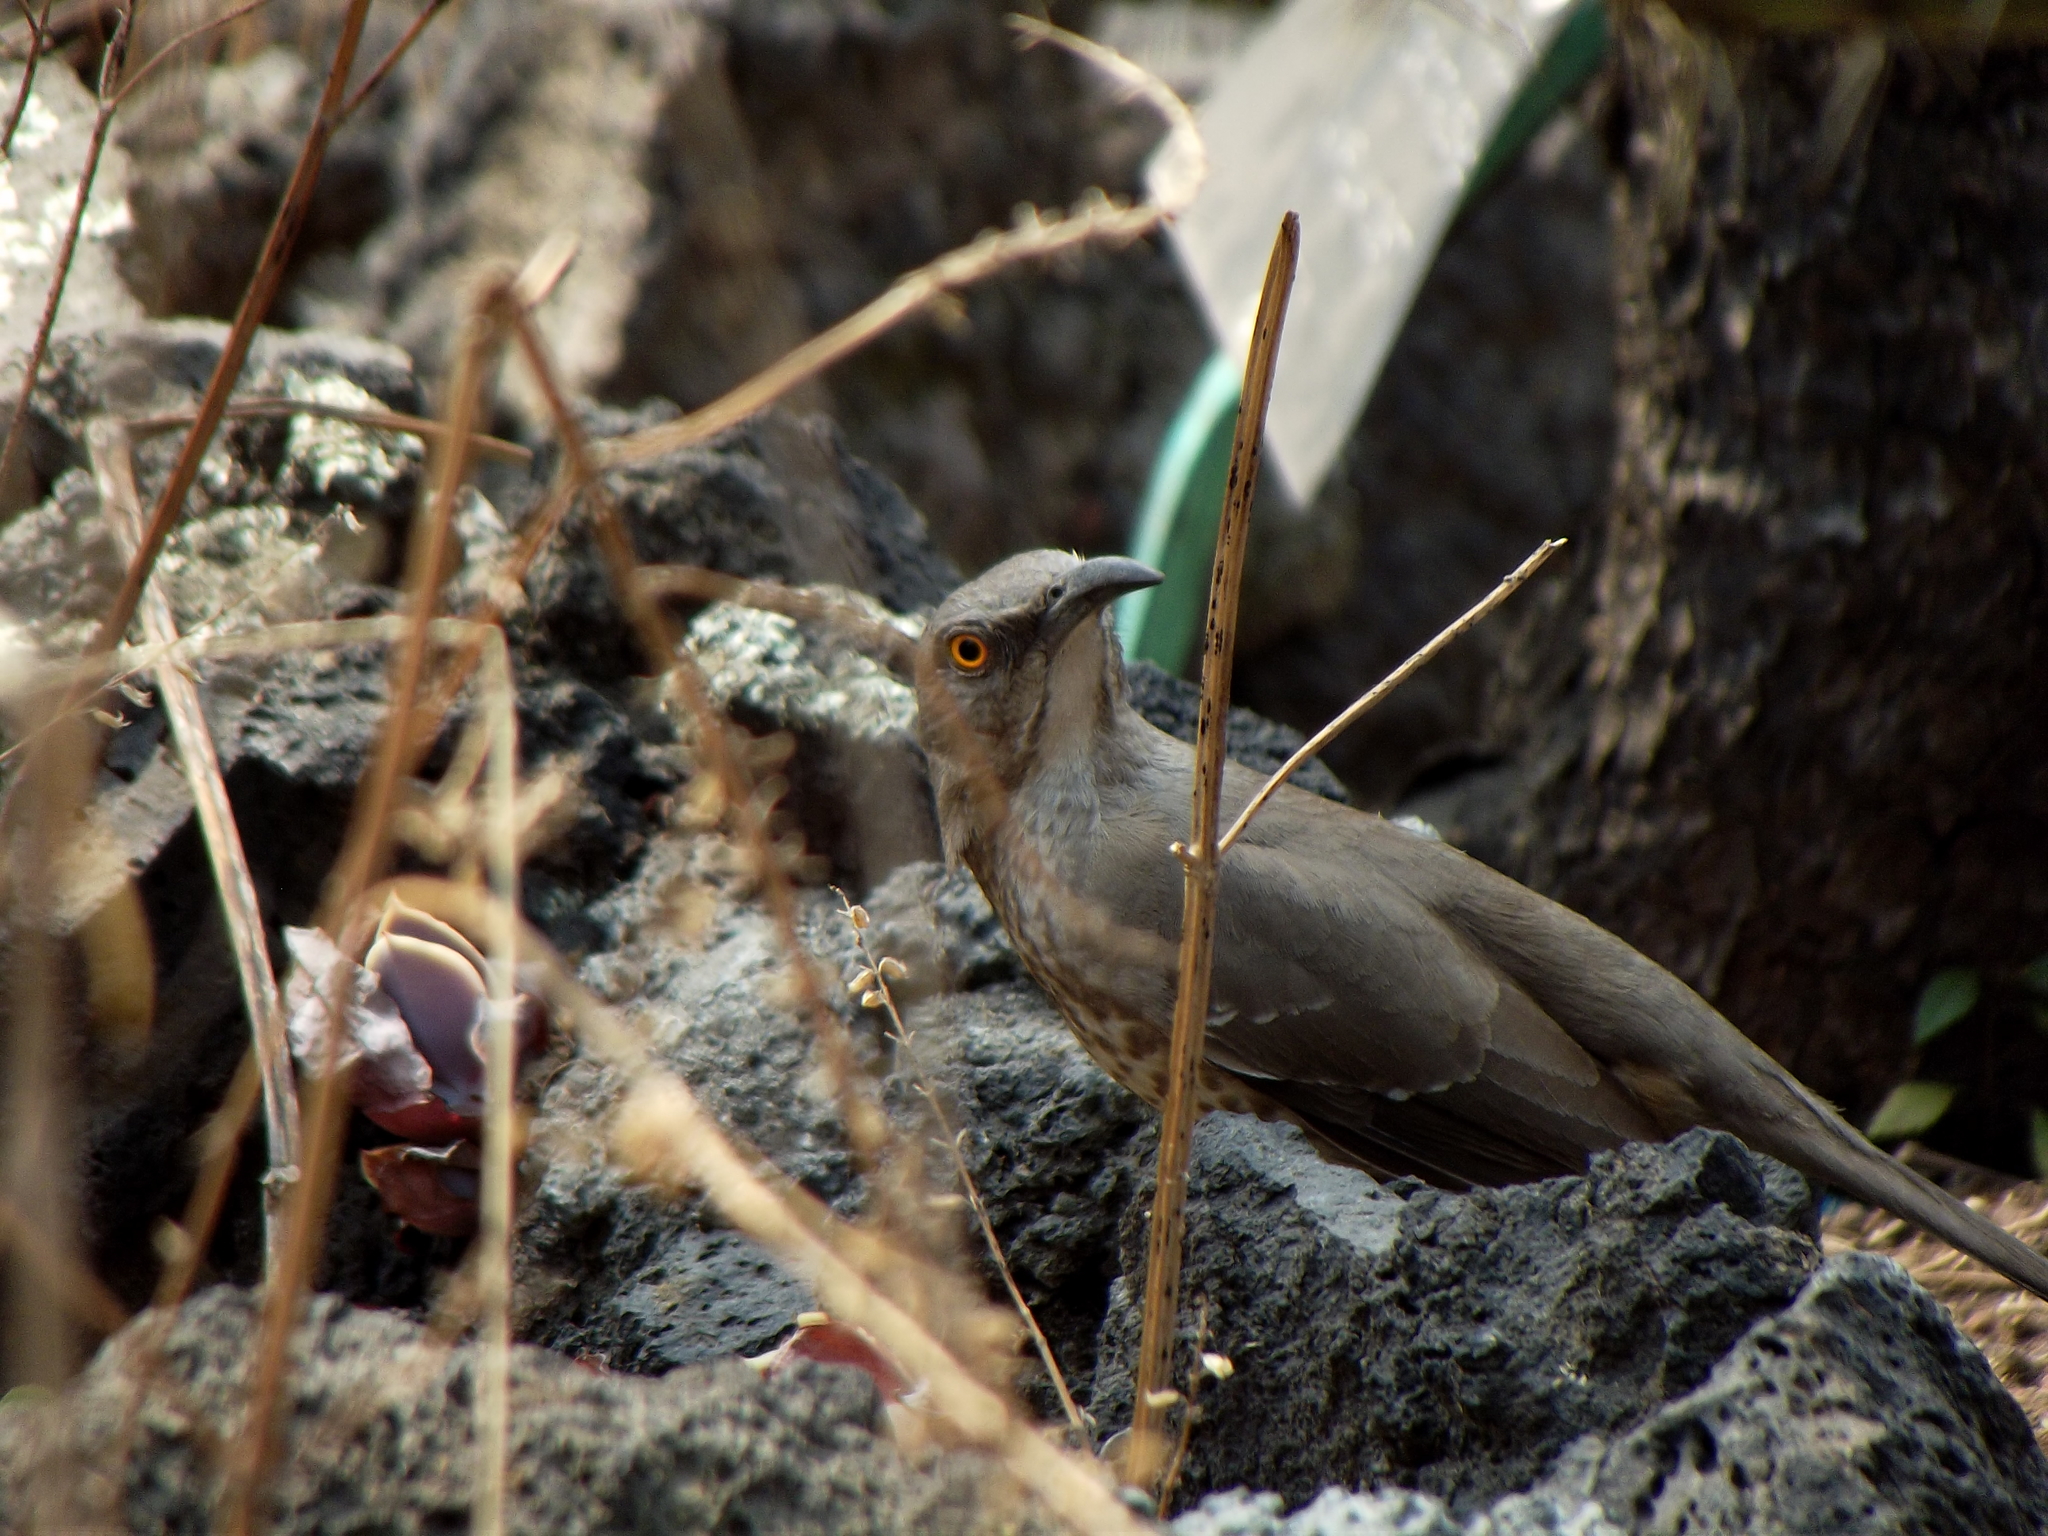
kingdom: Animalia
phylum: Chordata
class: Aves
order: Passeriformes
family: Mimidae
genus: Toxostoma
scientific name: Toxostoma curvirostre
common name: Curve-billed thrasher
